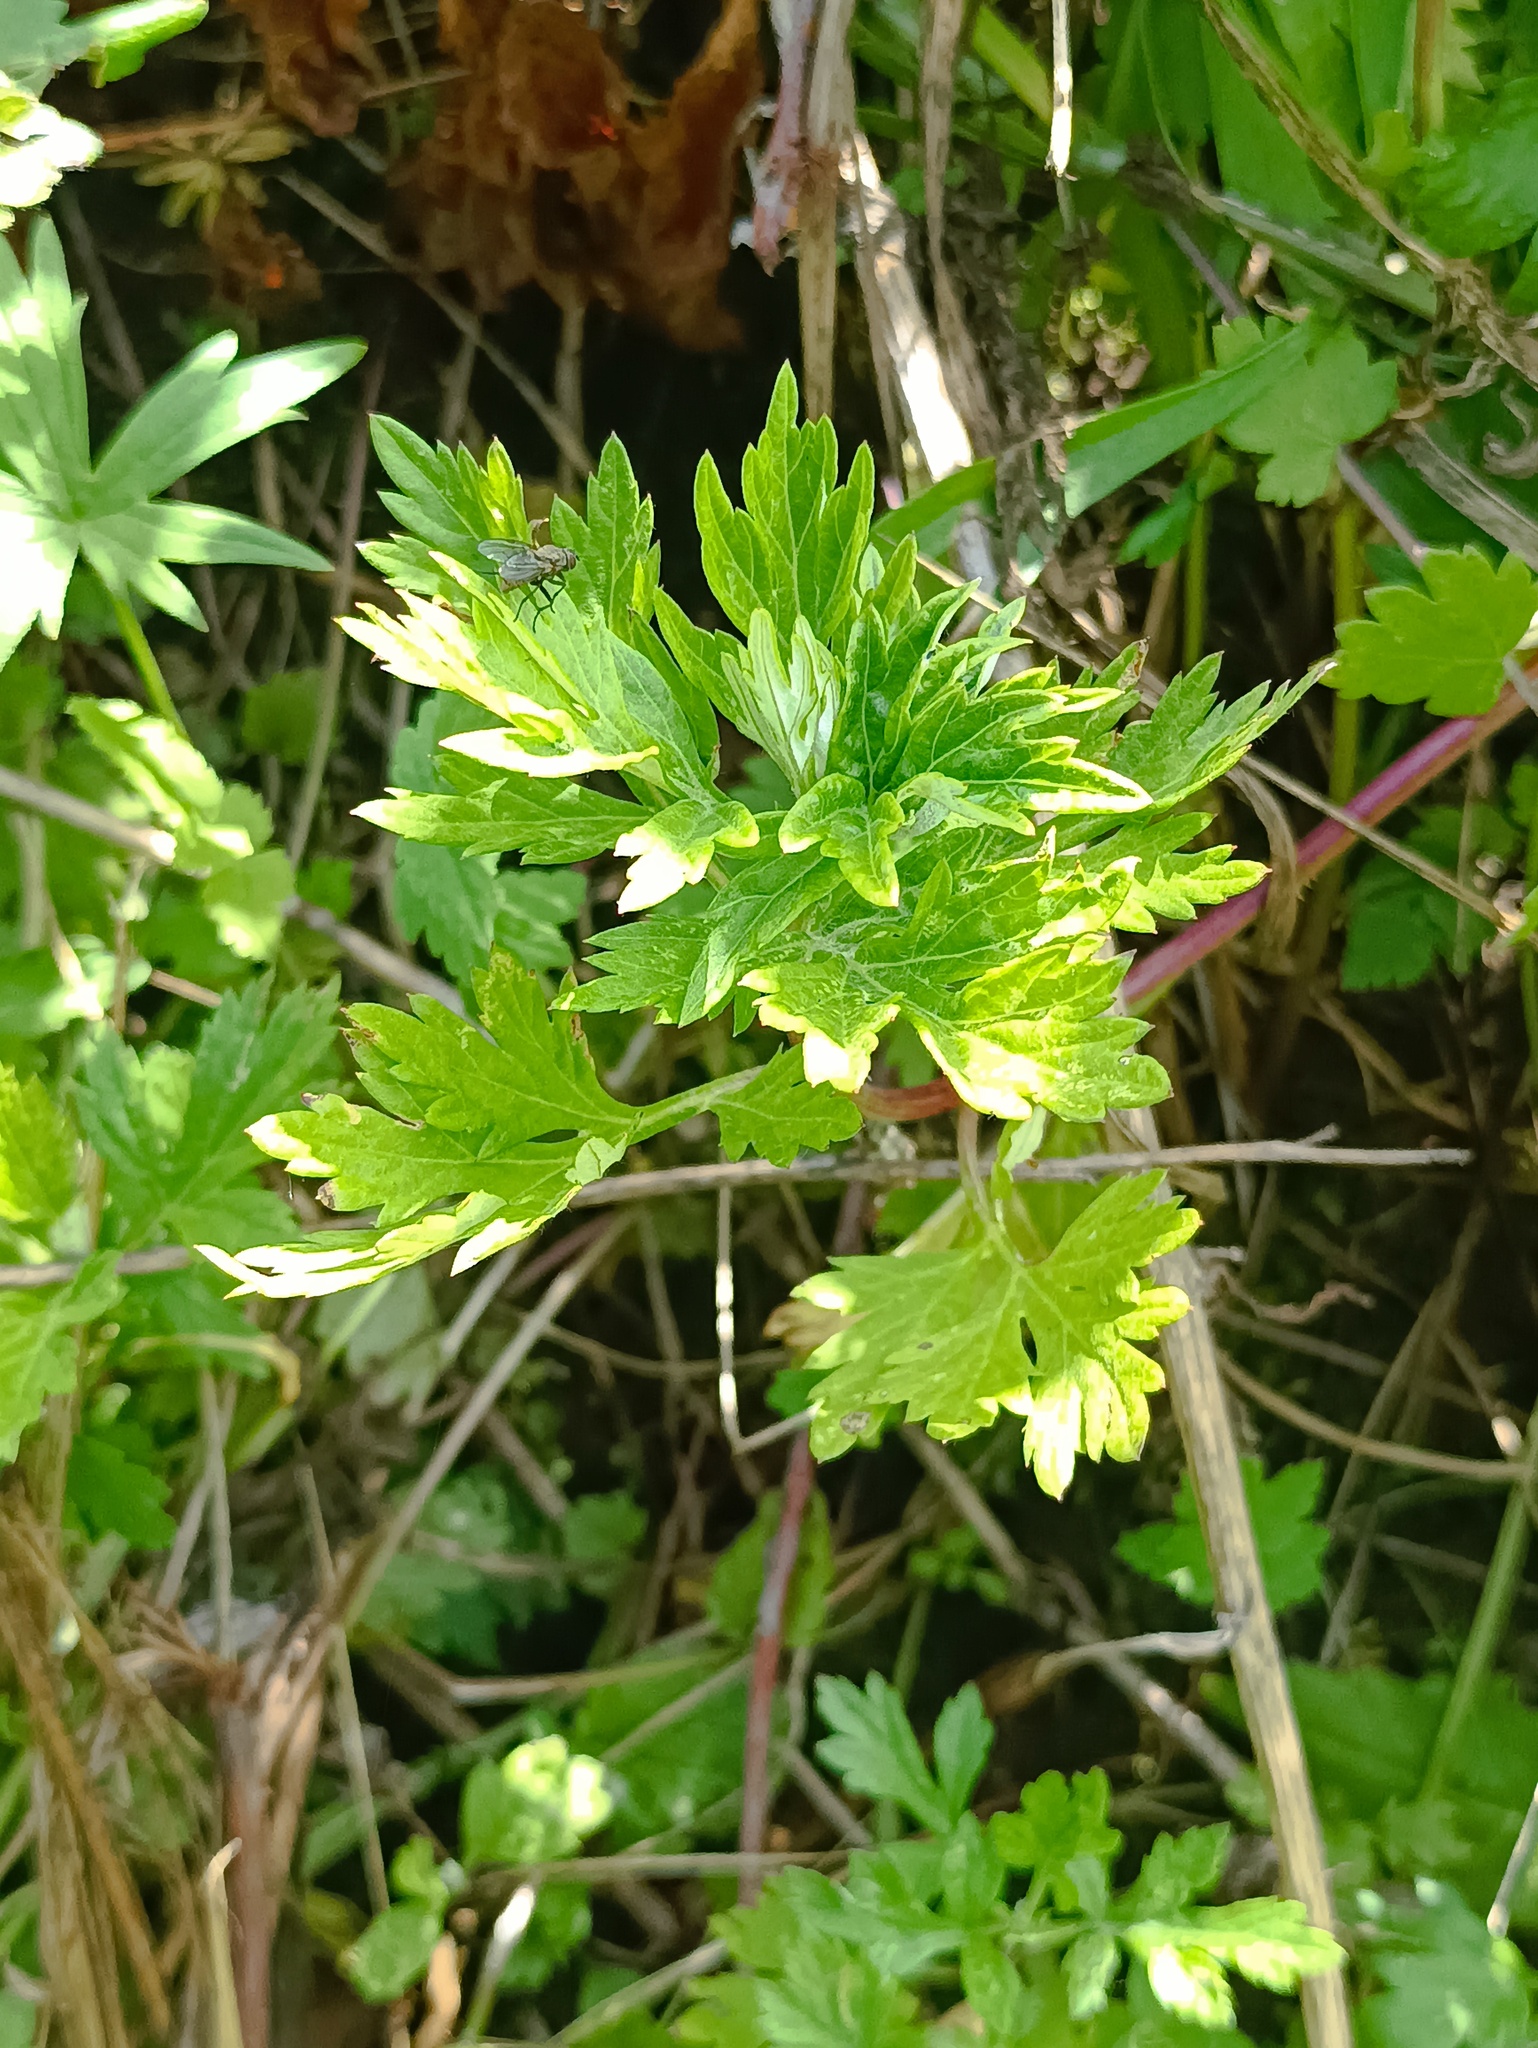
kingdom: Plantae
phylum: Tracheophyta
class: Magnoliopsida
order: Asterales
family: Asteraceae
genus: Artemisia
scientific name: Artemisia vulgaris
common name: Mugwort
